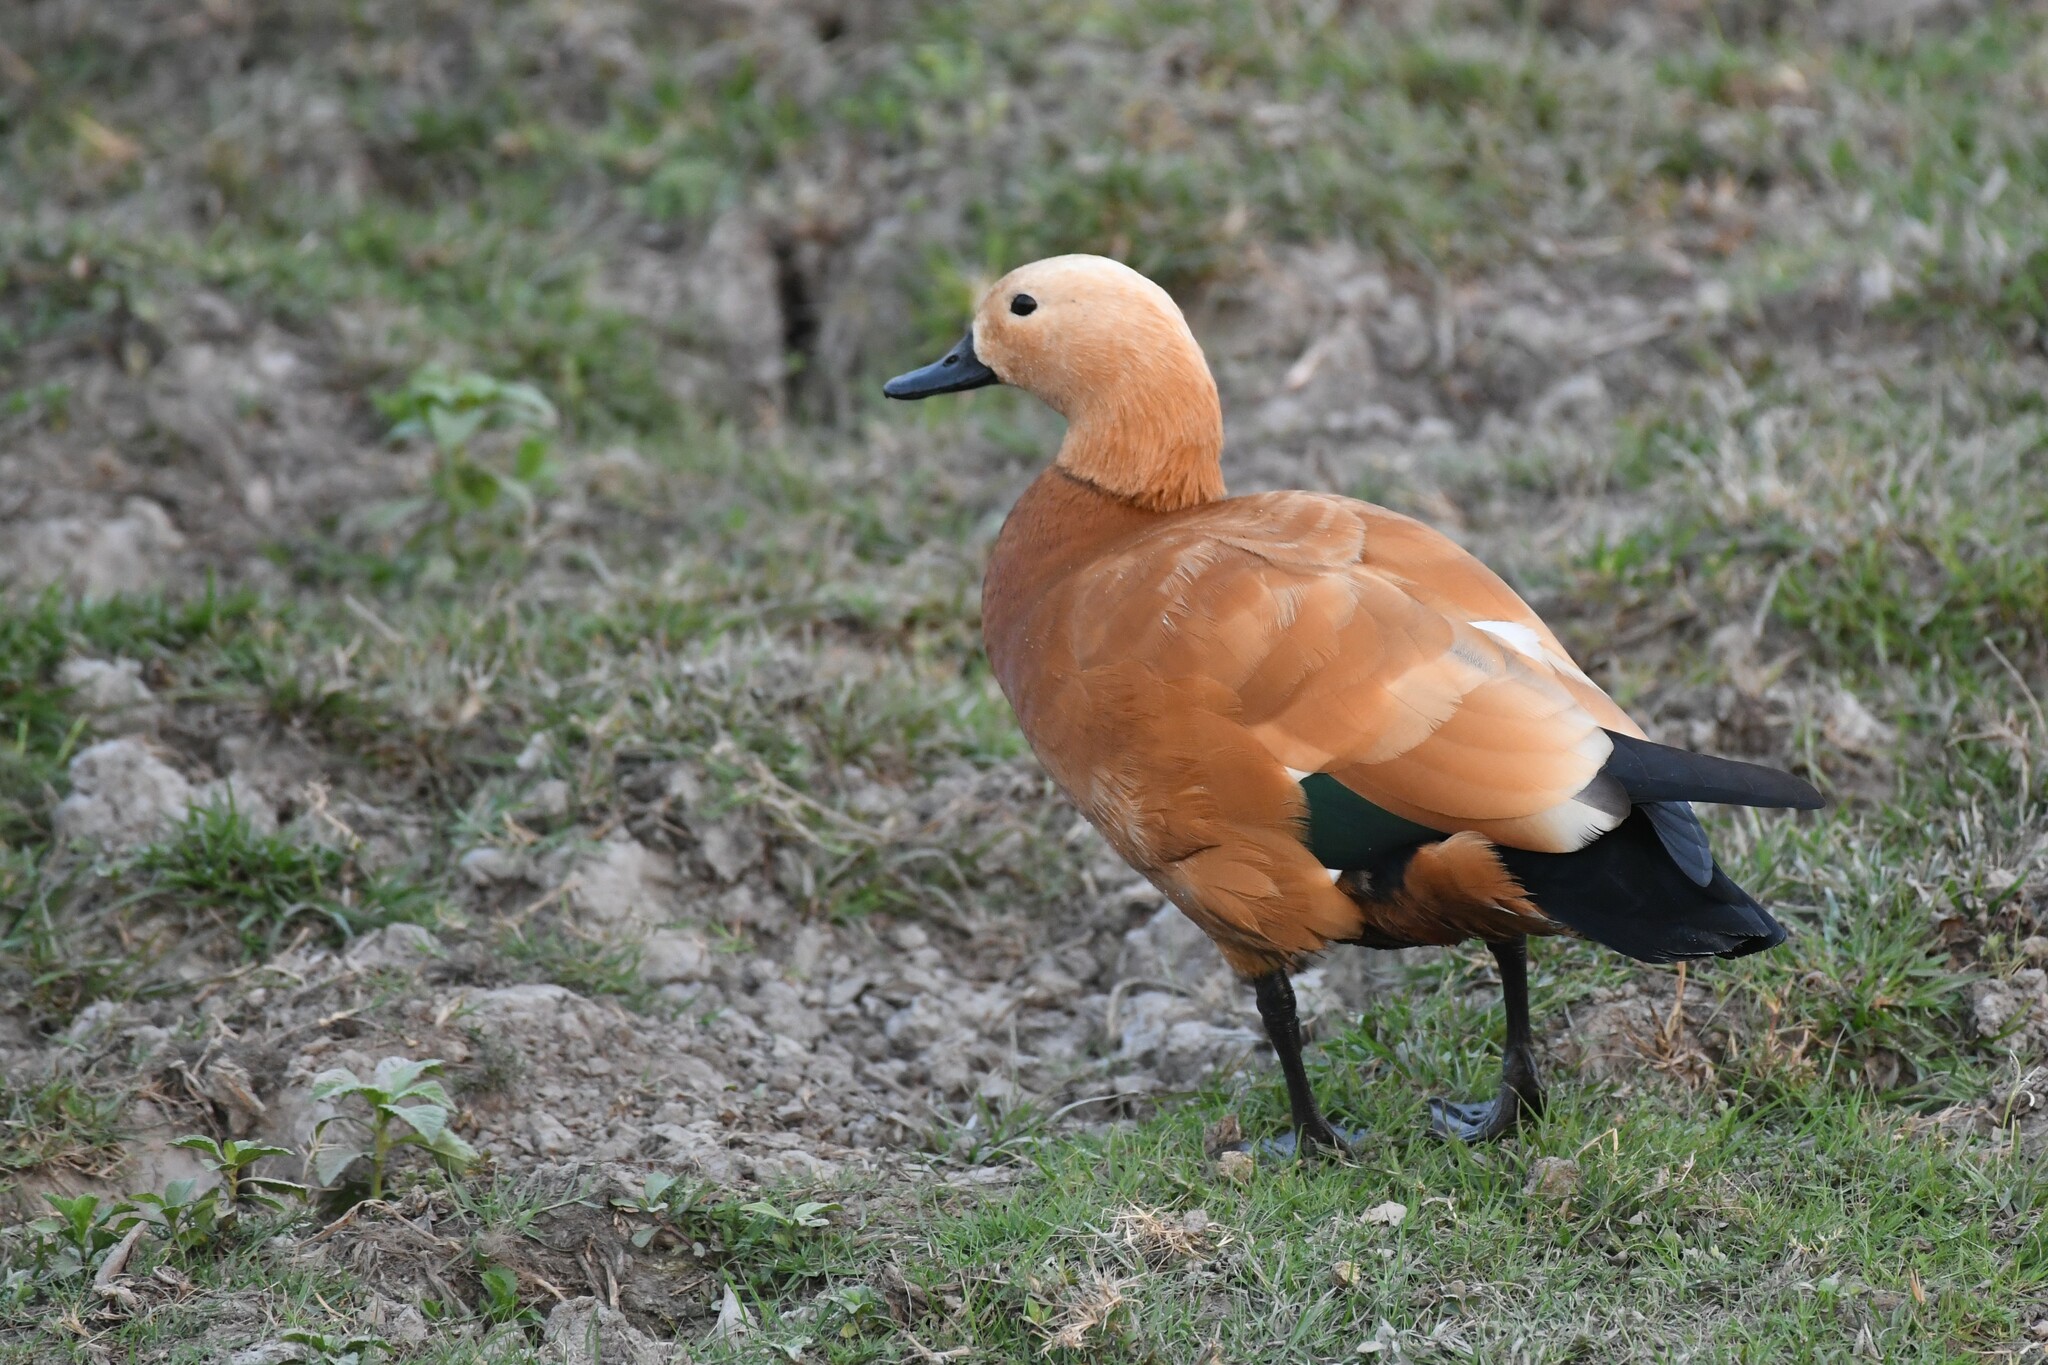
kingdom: Animalia
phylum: Chordata
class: Aves
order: Anseriformes
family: Anatidae
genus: Tadorna
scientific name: Tadorna ferruginea
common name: Ruddy shelduck
